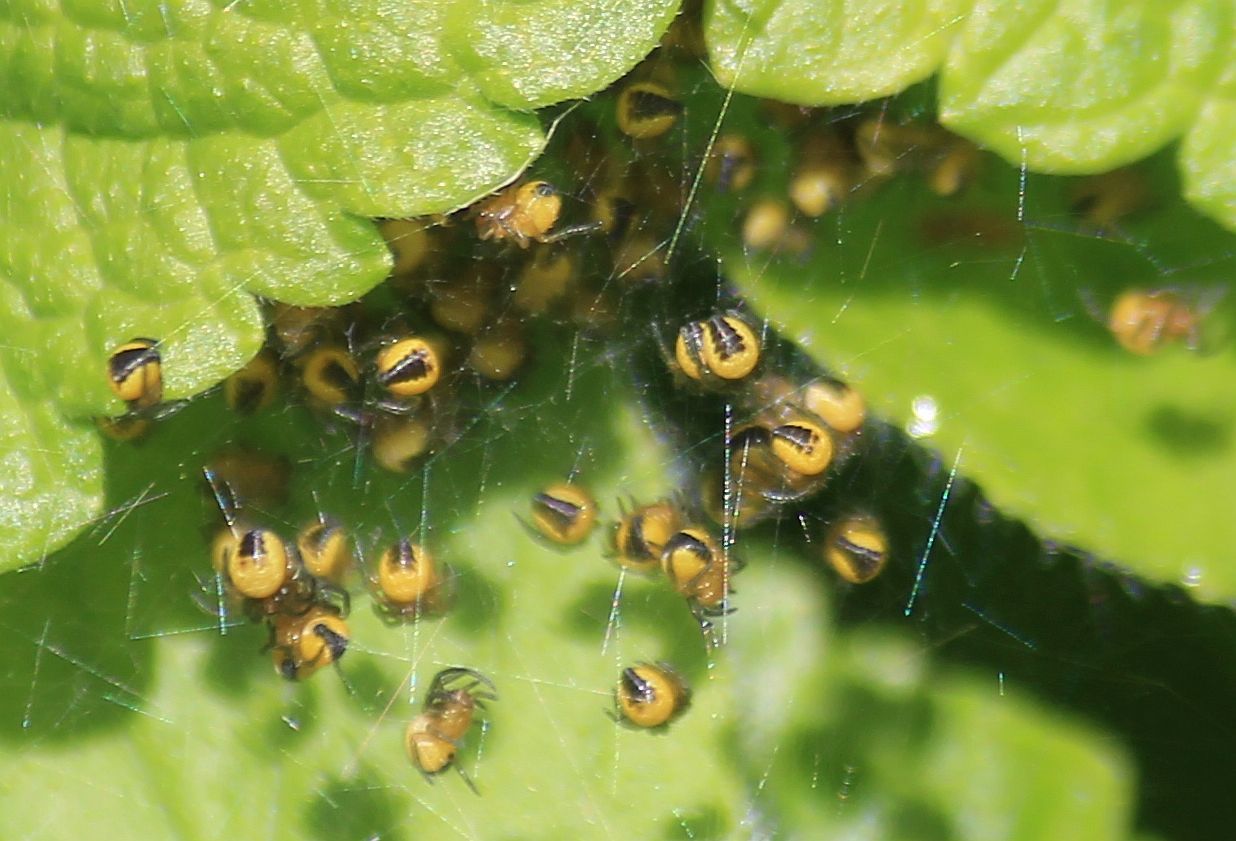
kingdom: Animalia
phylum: Arthropoda
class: Arachnida
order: Araneae
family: Araneidae
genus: Araneus
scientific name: Araneus diadematus
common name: Cross orbweaver
